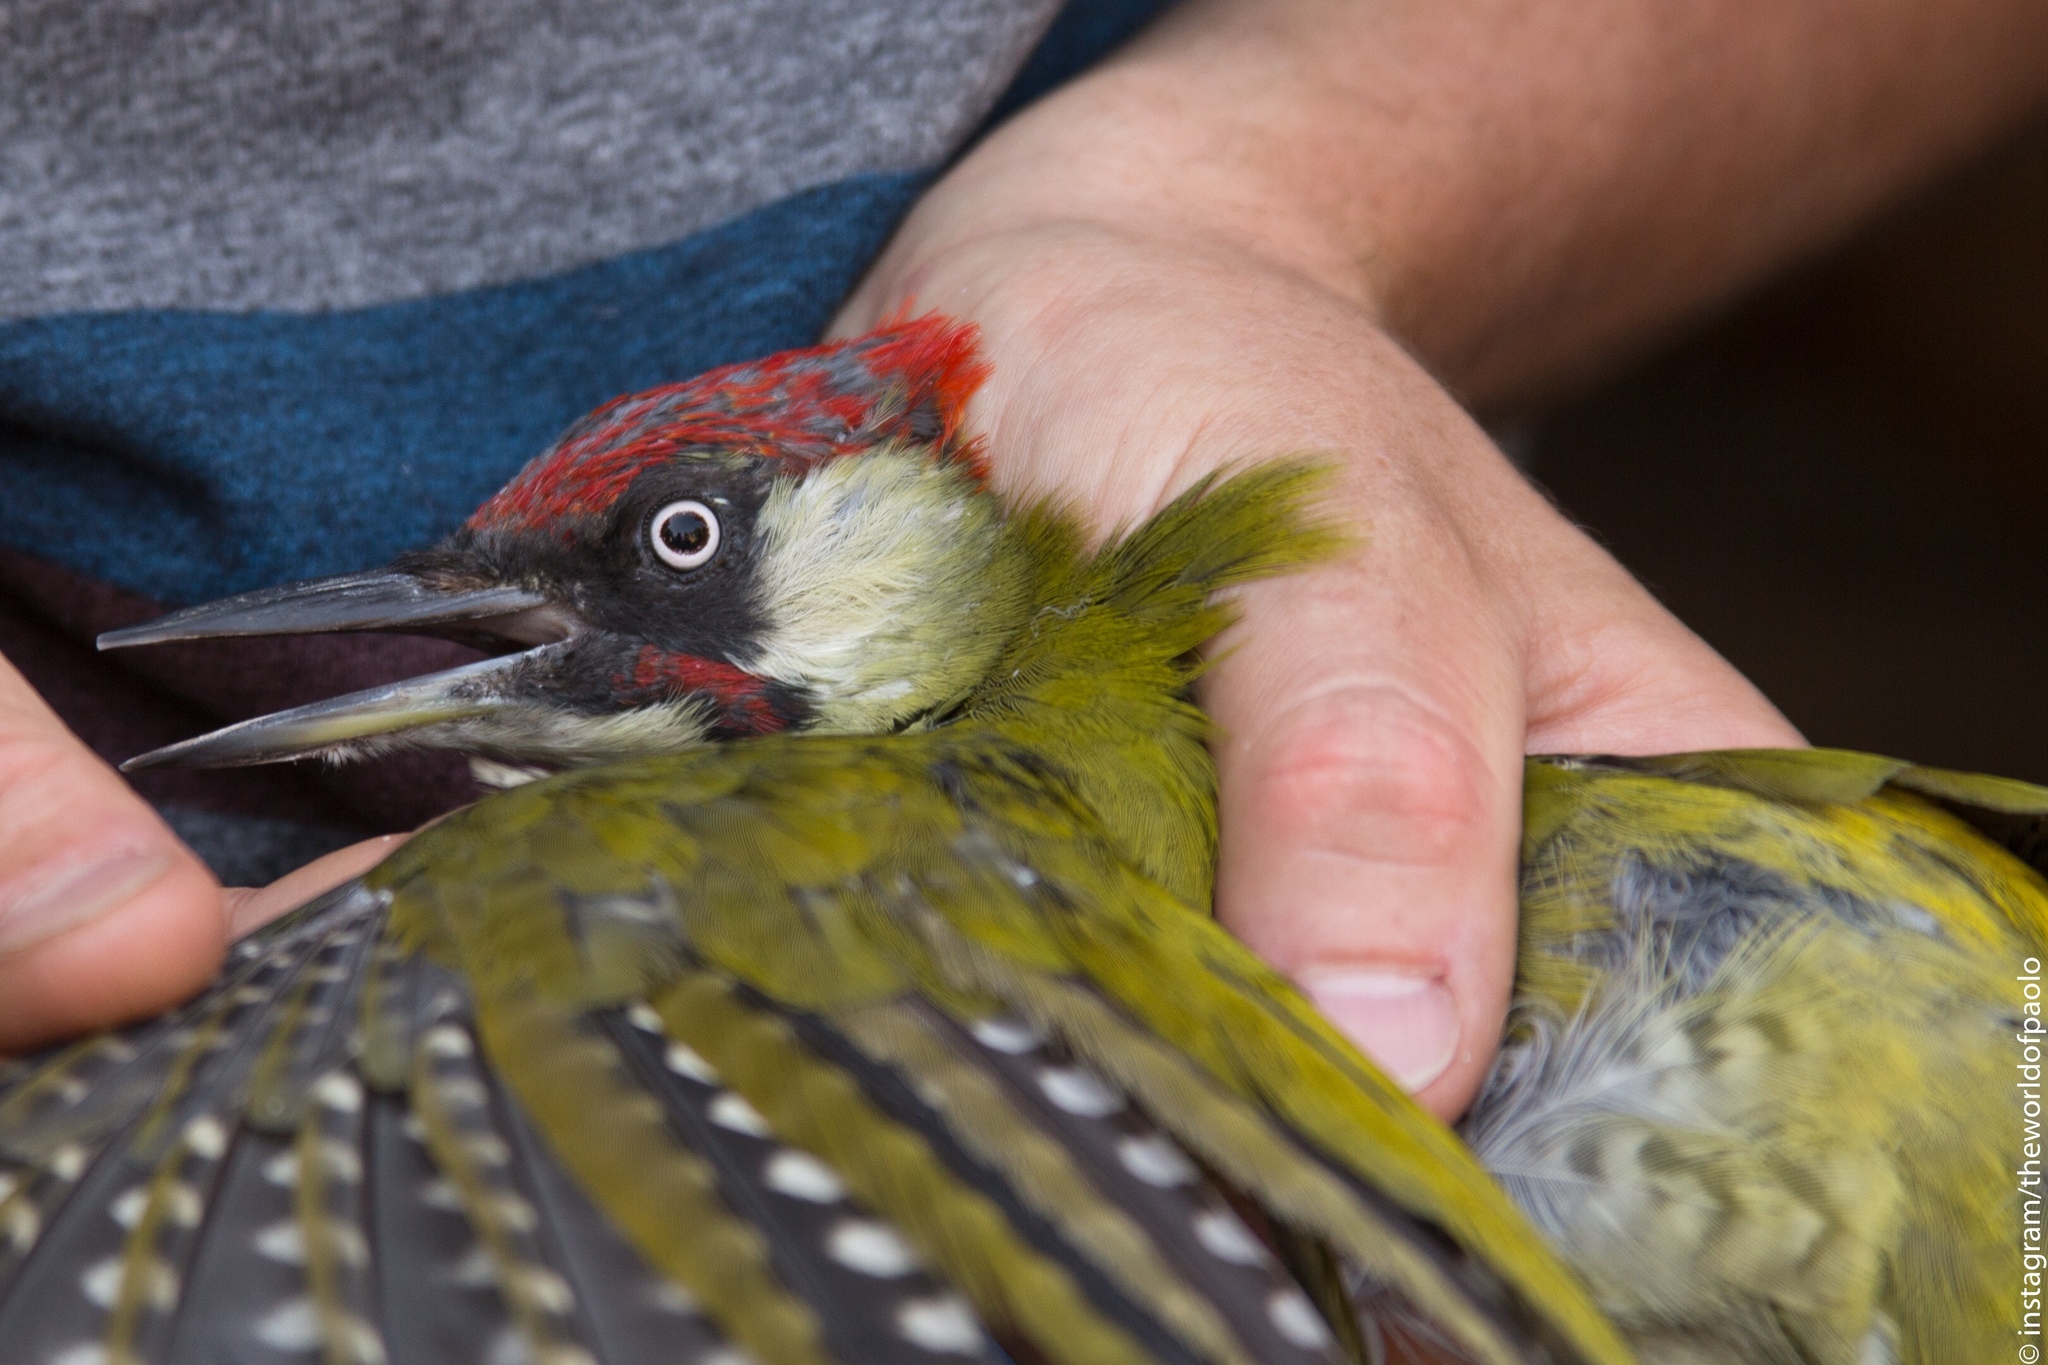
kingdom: Animalia
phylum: Chordata
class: Aves
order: Piciformes
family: Picidae
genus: Picus
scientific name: Picus viridis
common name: European green woodpecker
